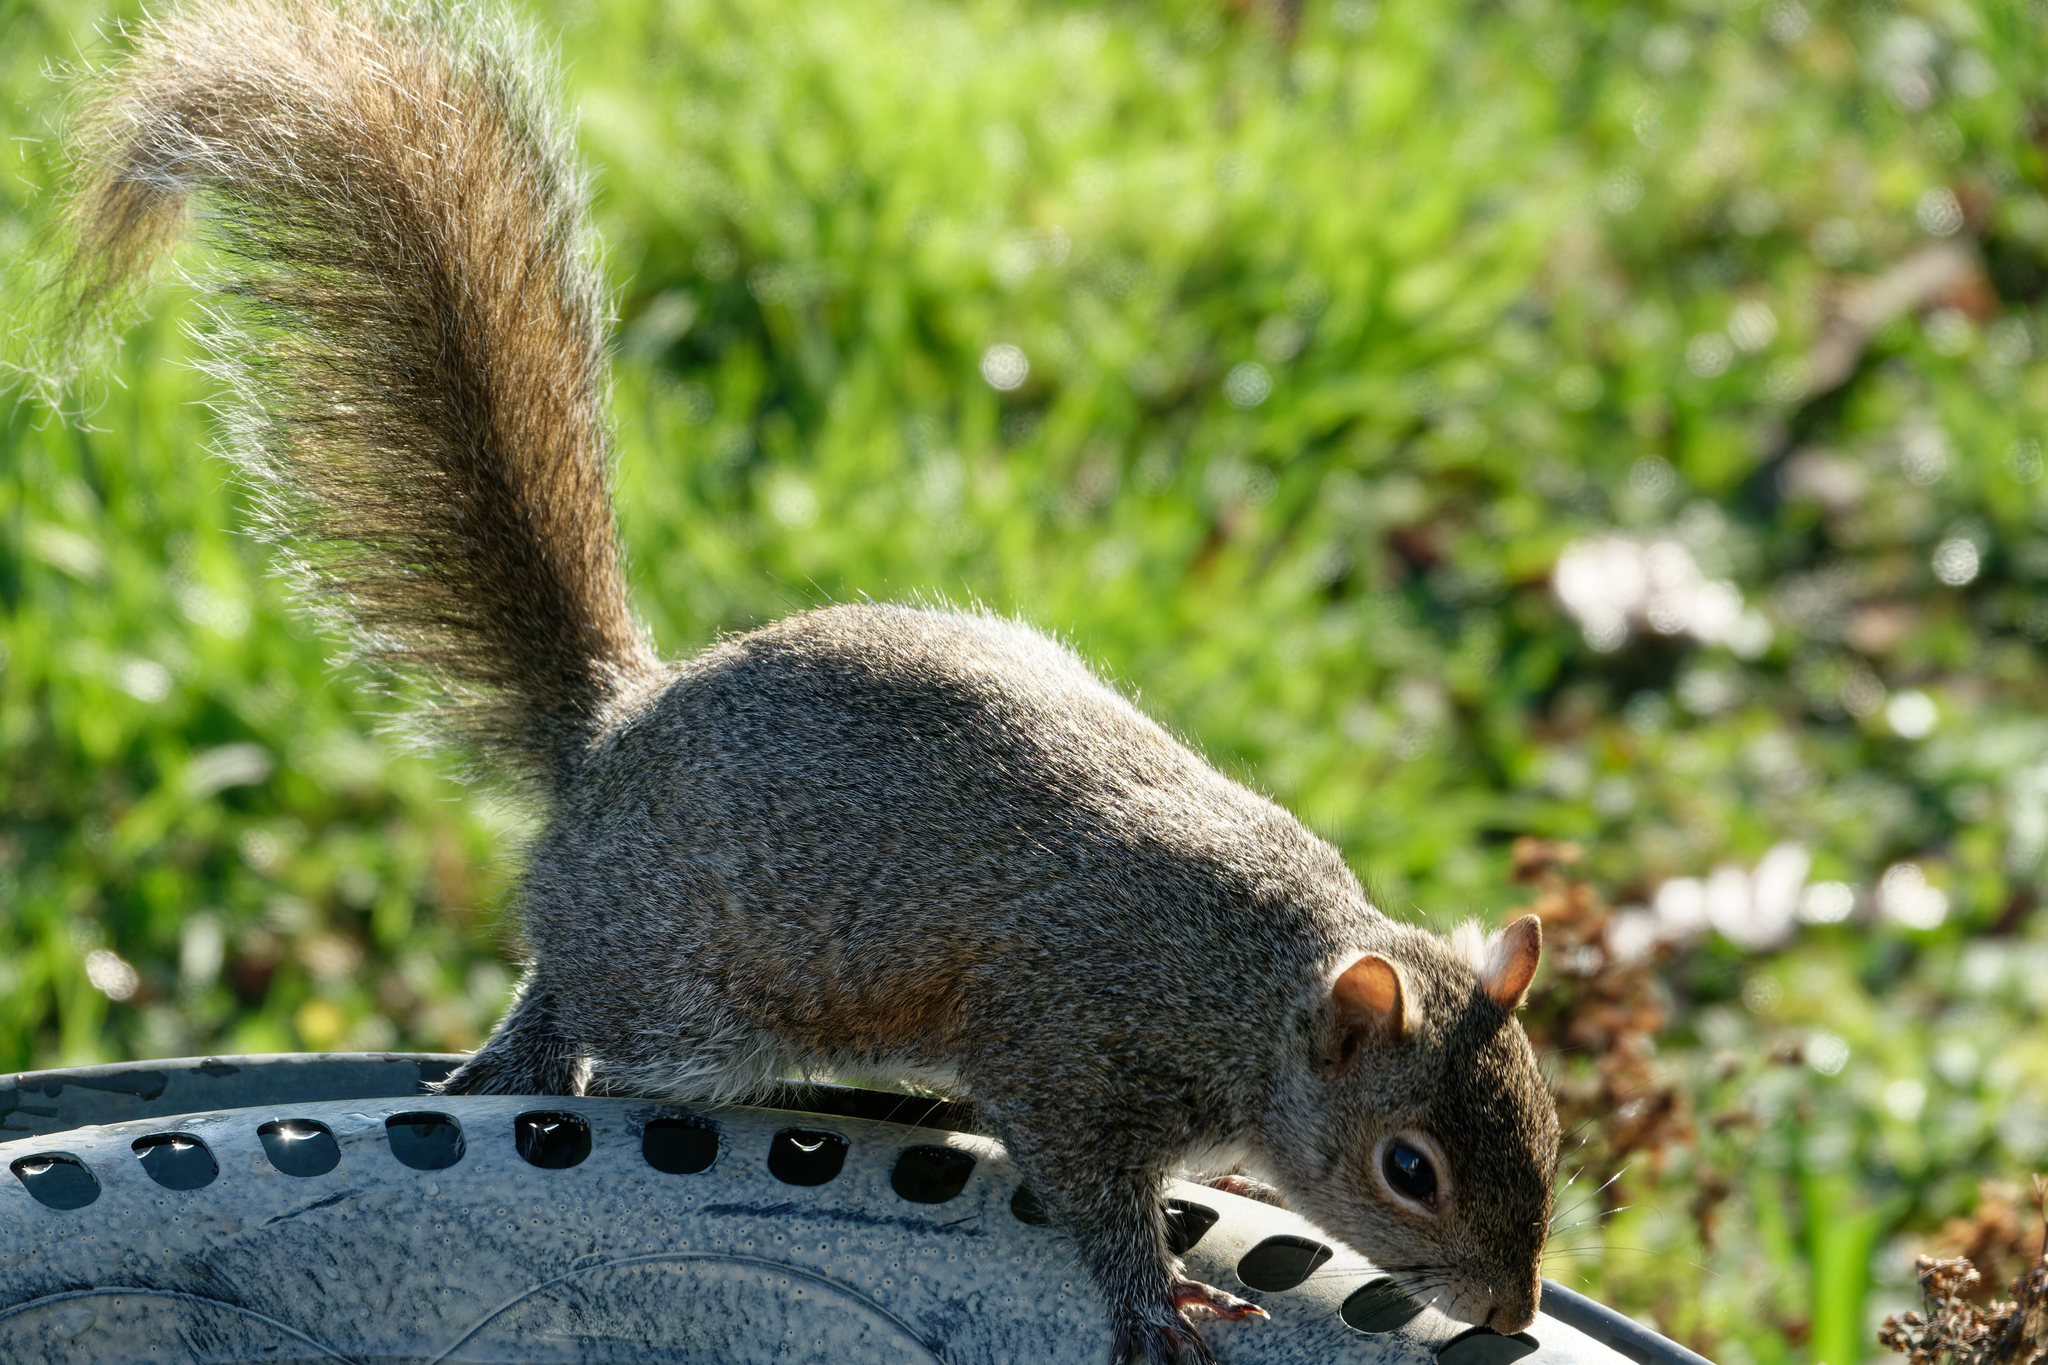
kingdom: Animalia
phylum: Chordata
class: Mammalia
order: Rodentia
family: Sciuridae
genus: Sciurus
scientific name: Sciurus carolinensis
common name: Eastern gray squirrel
